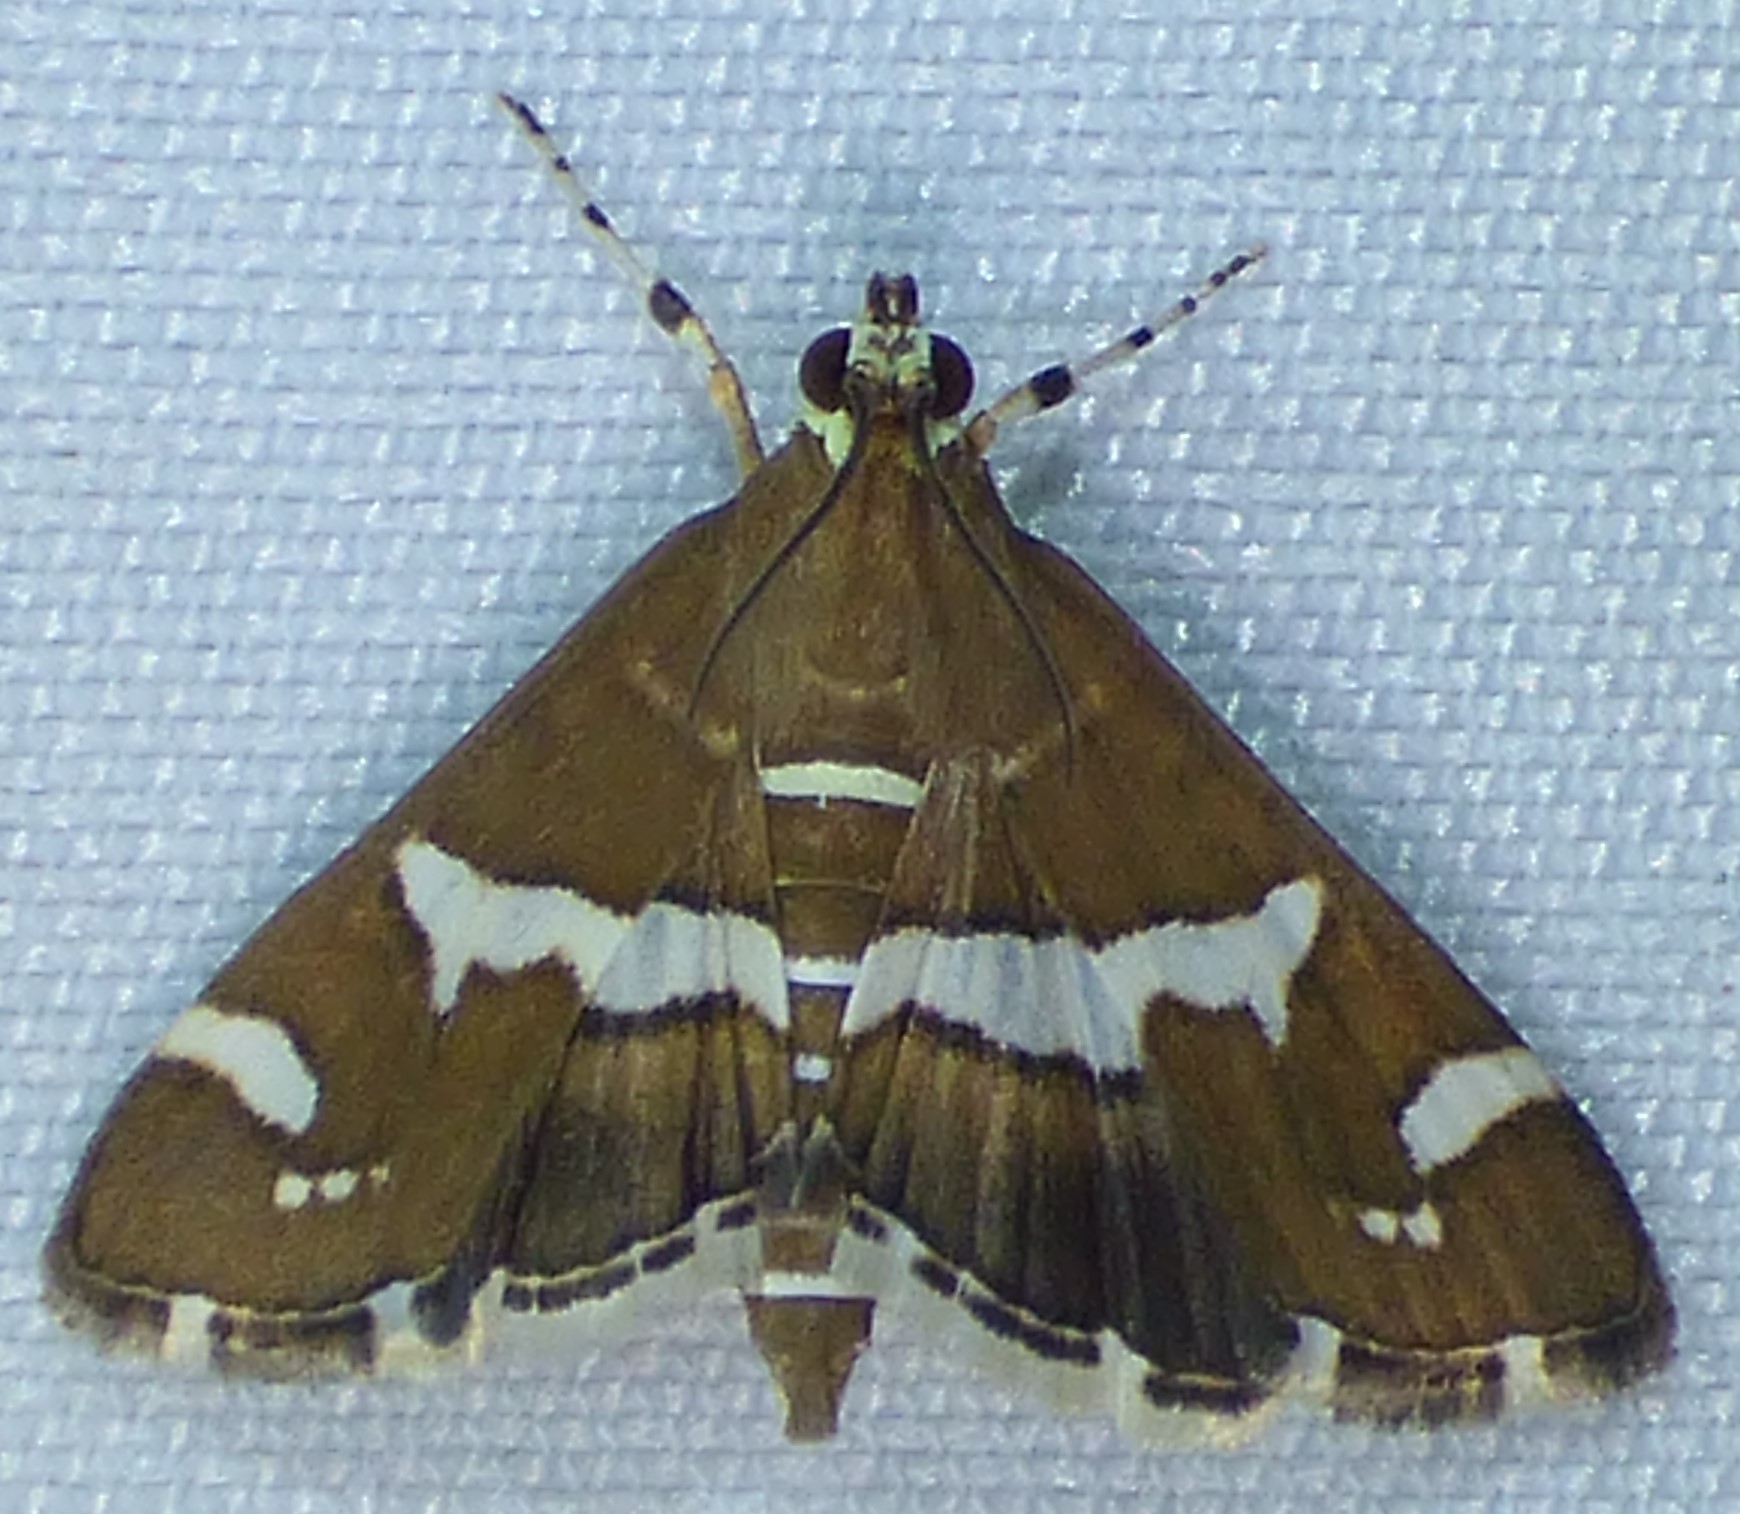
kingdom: Animalia
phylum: Arthropoda
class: Insecta
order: Lepidoptera
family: Crambidae
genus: Spoladea
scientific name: Spoladea recurvalis
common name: Beet webworm moth
